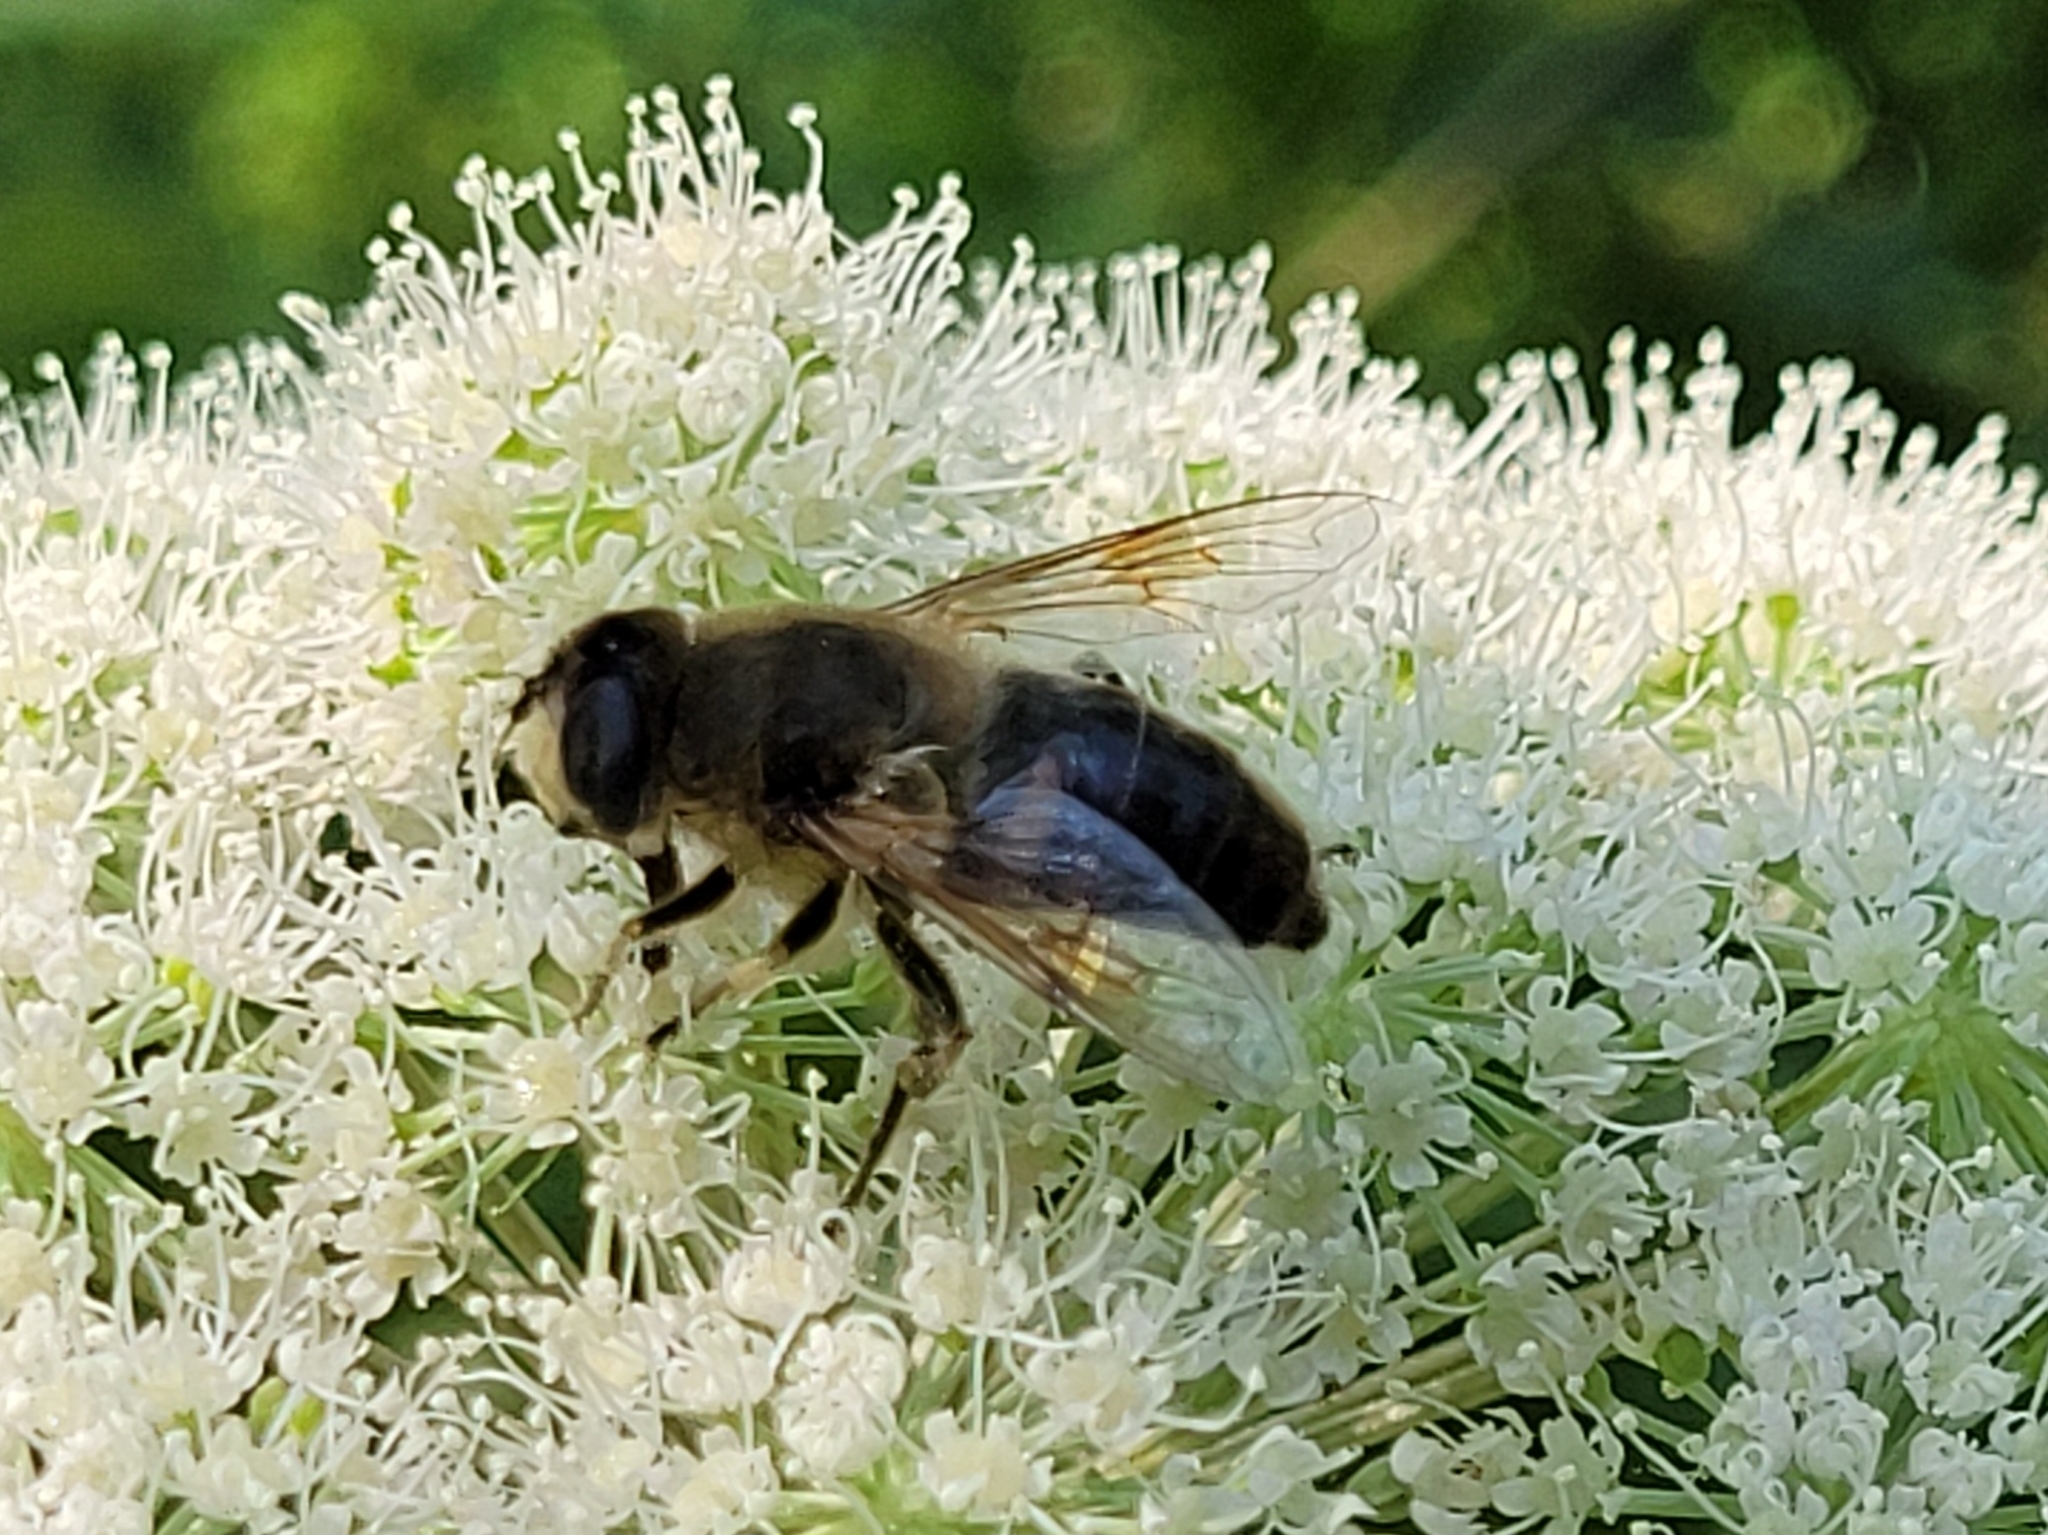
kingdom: Animalia
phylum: Arthropoda
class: Insecta
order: Diptera
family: Syrphidae
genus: Eristalis
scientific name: Eristalis tenax
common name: Drone fly
